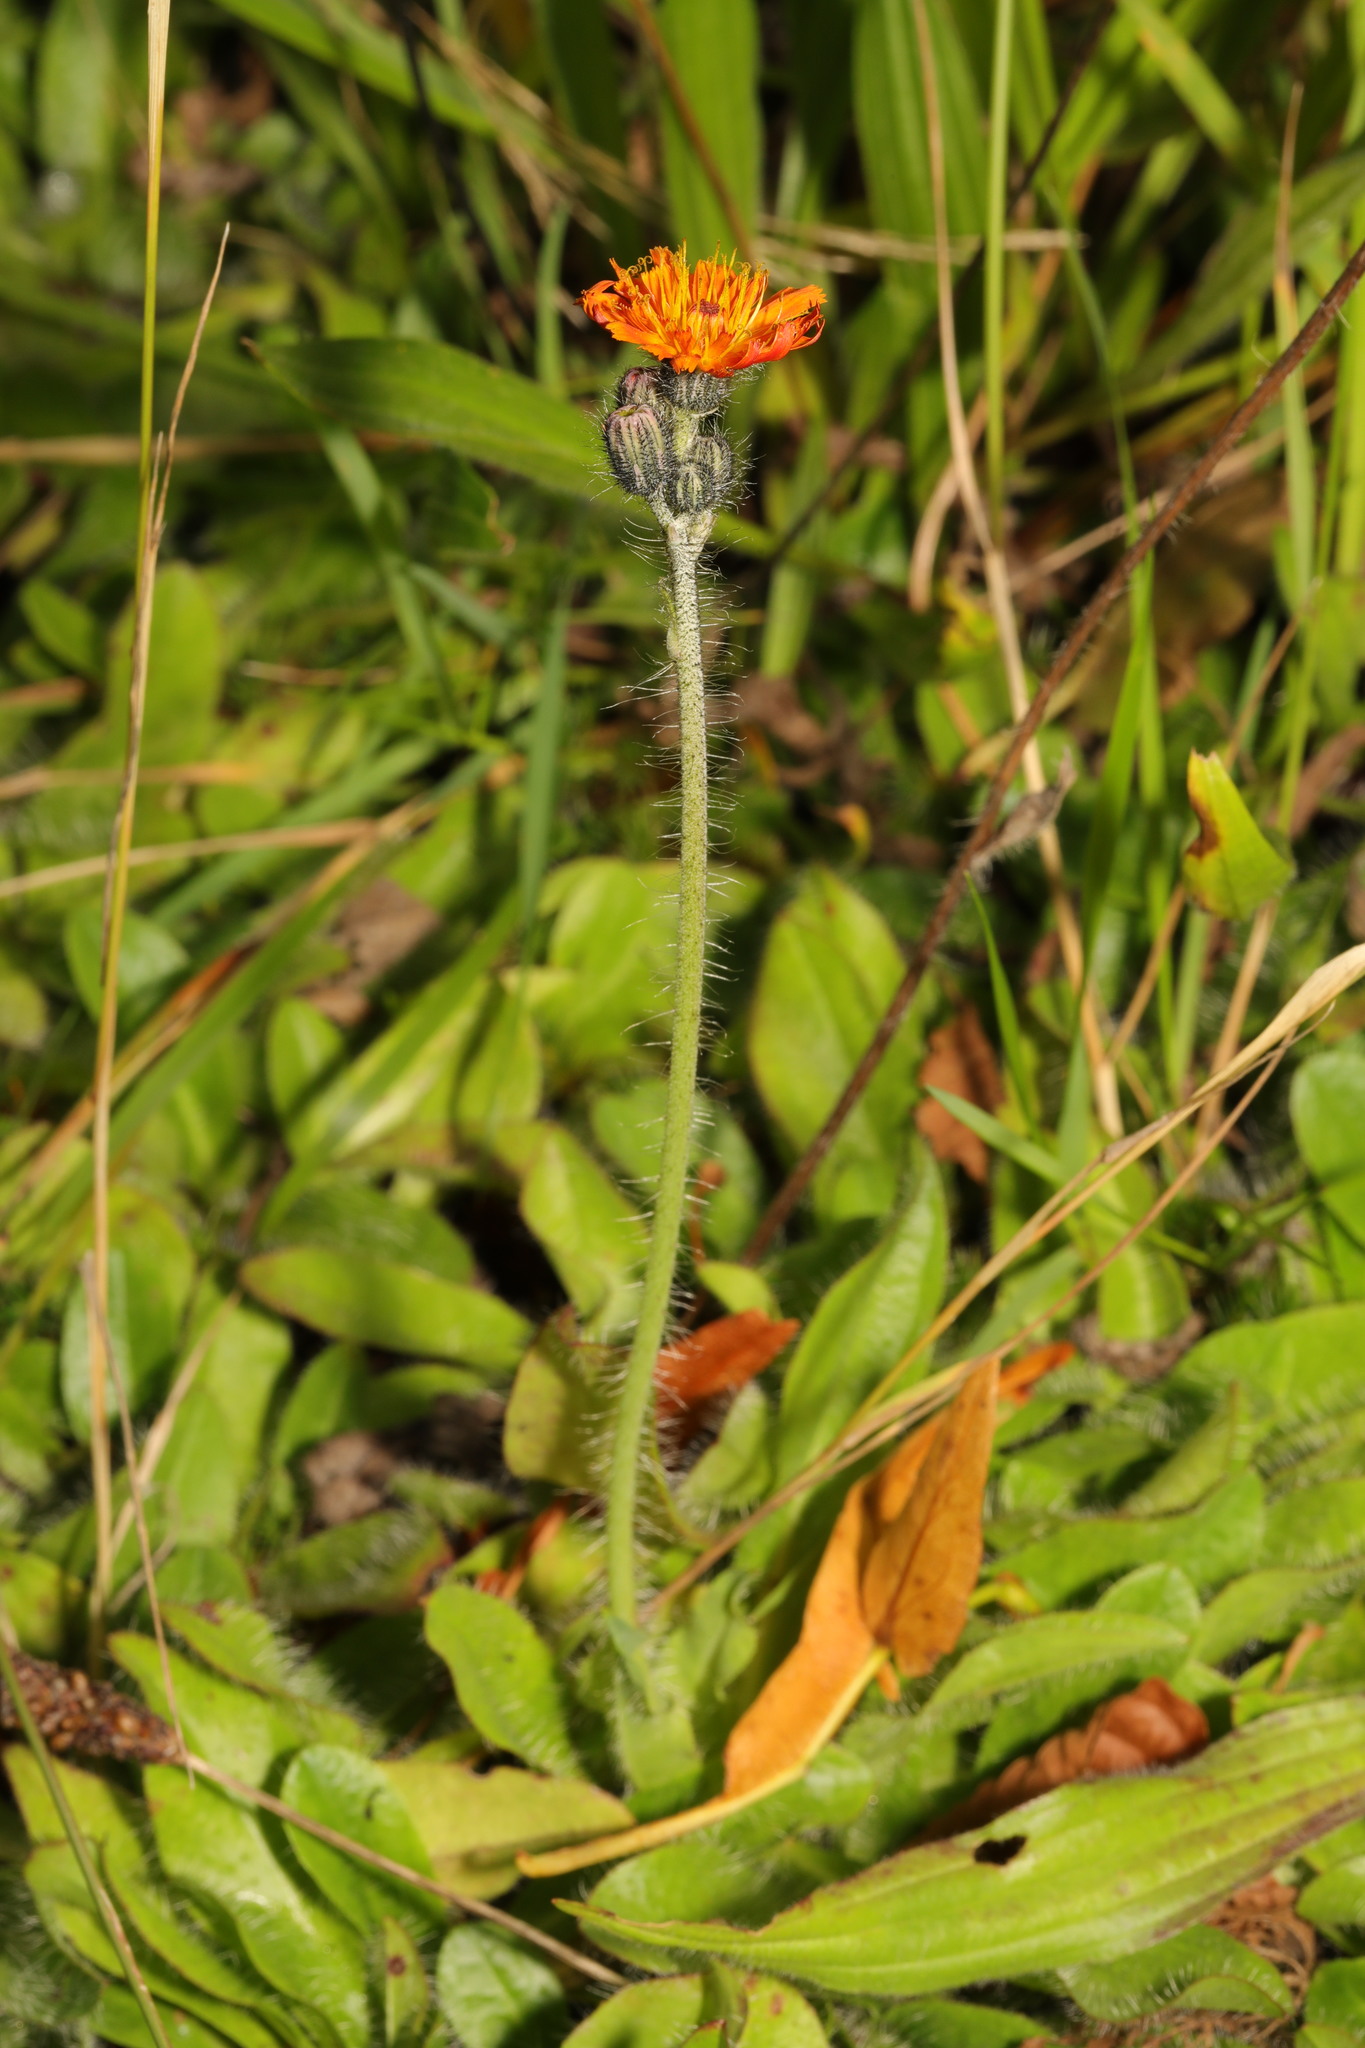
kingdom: Plantae
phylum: Tracheophyta
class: Magnoliopsida
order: Asterales
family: Asteraceae
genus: Pilosella
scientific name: Pilosella aurantiaca
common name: Fox-and-cubs
